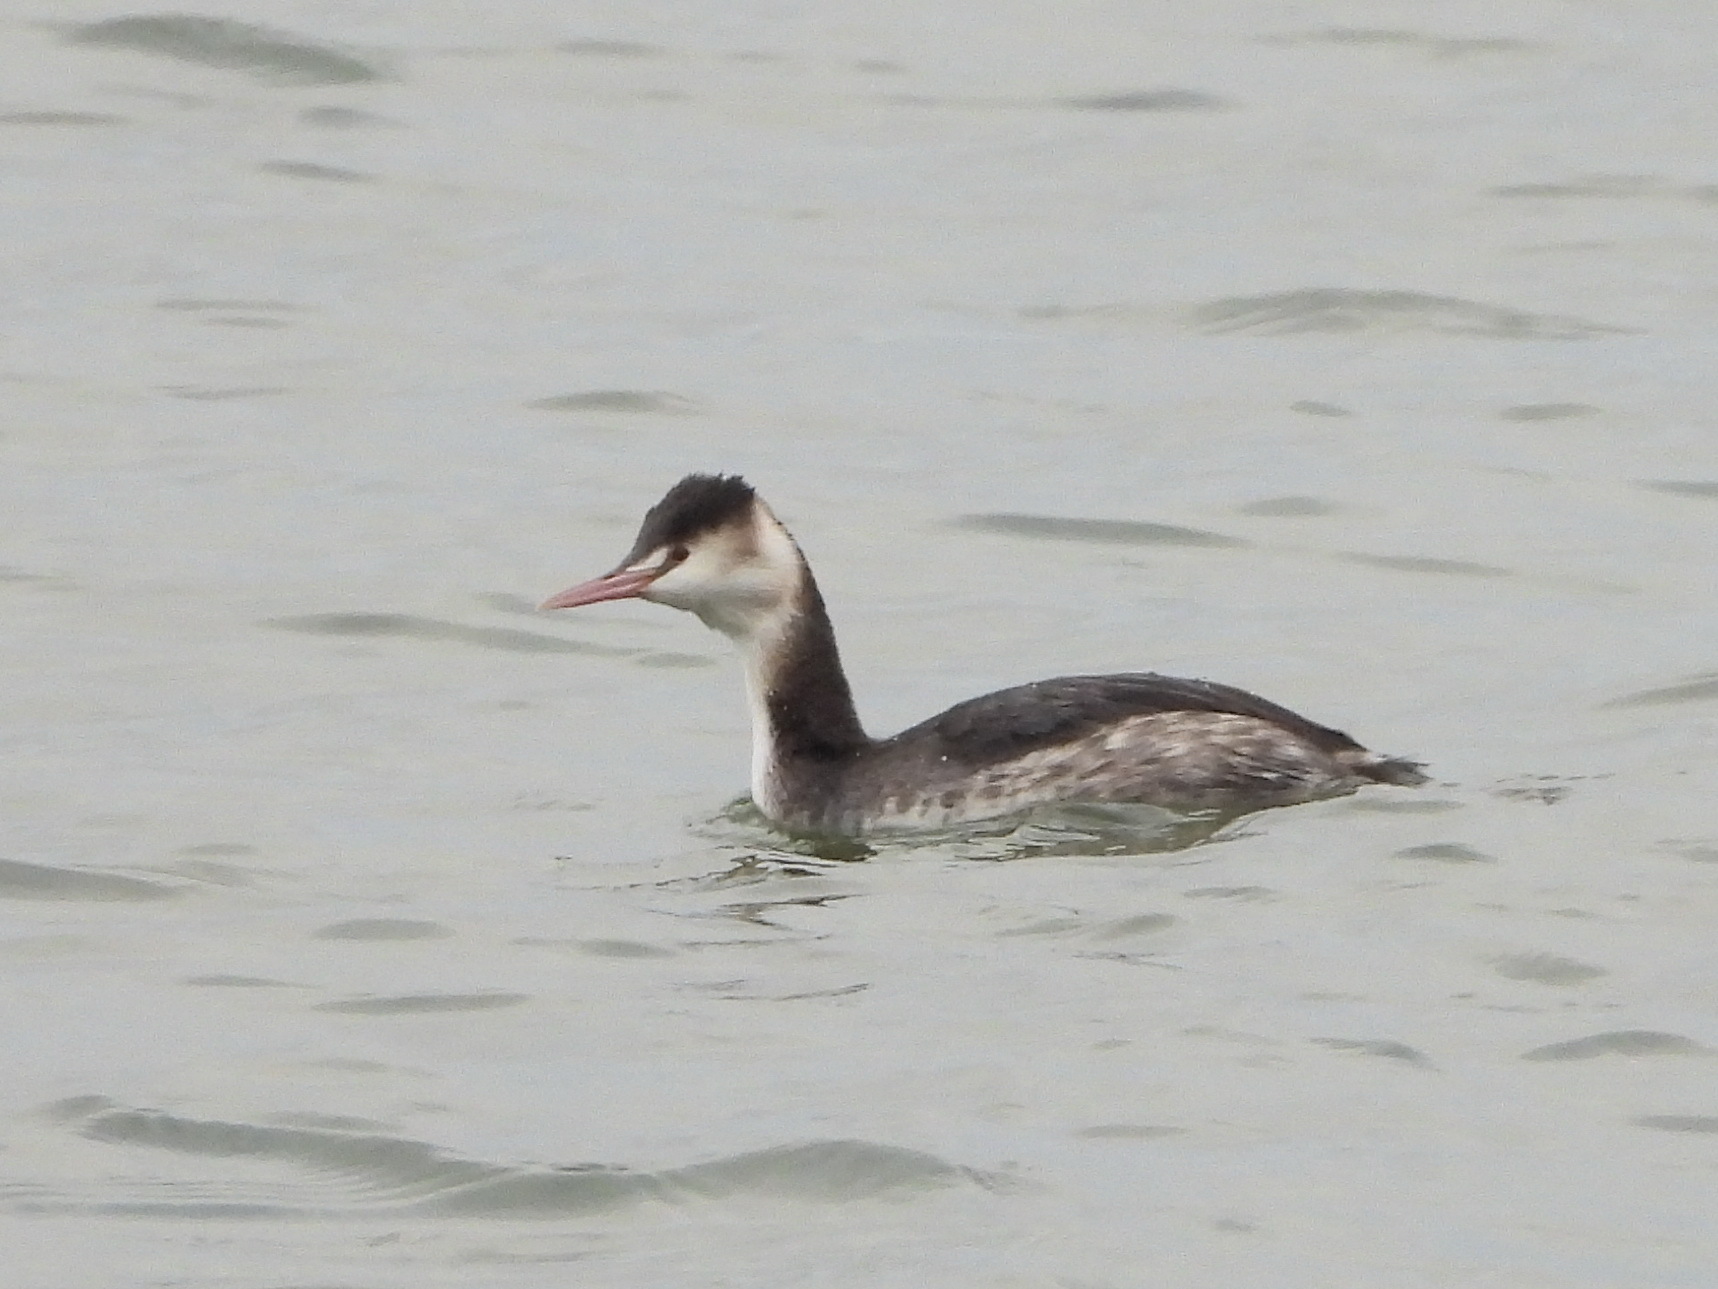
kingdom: Animalia
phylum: Chordata
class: Aves
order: Podicipediformes
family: Podicipedidae
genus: Podiceps
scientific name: Podiceps cristatus
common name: Great crested grebe
